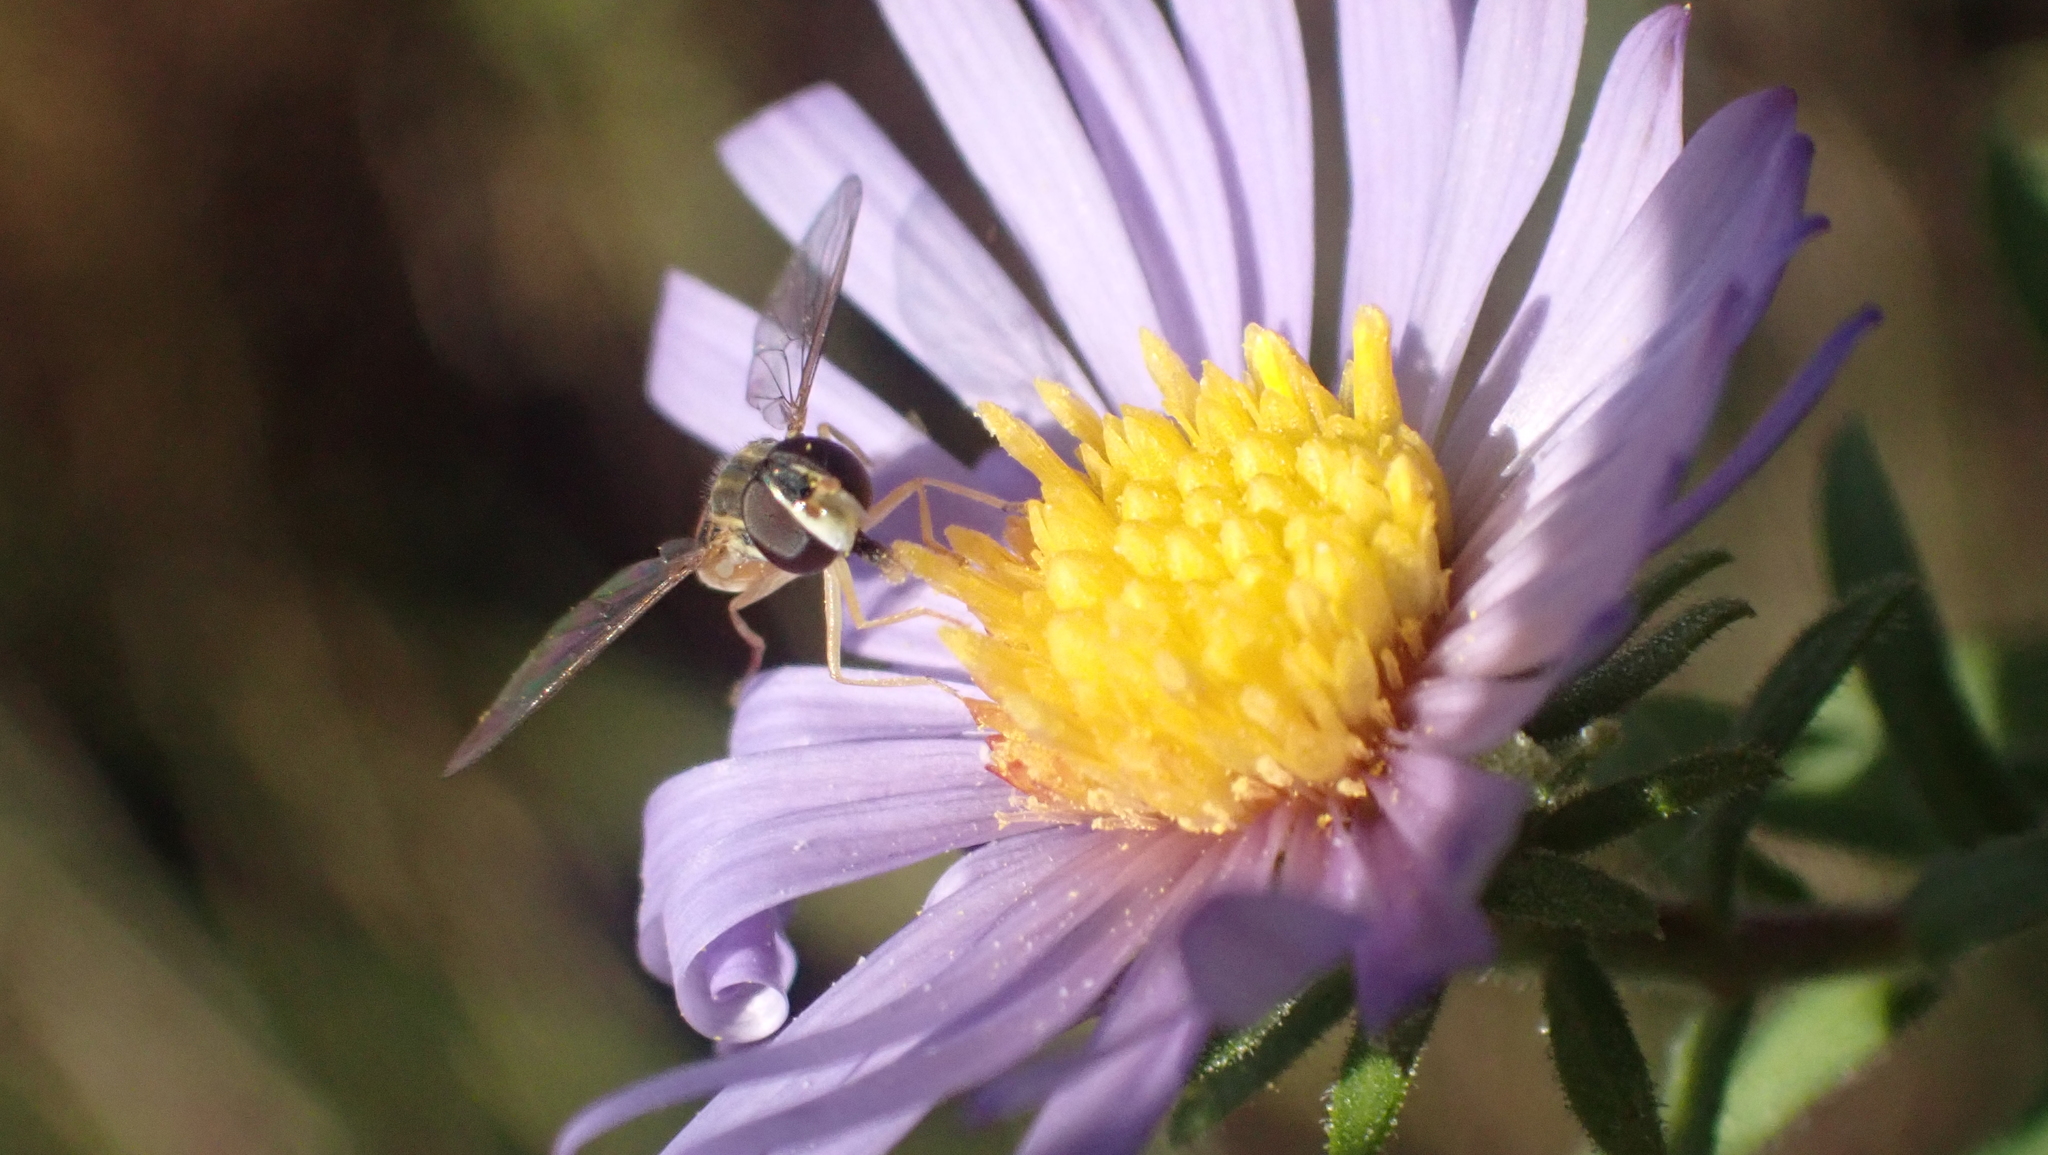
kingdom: Animalia
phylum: Arthropoda
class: Insecta
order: Diptera
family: Syrphidae
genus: Toxomerus
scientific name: Toxomerus marginatus
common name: Syrphid fly
